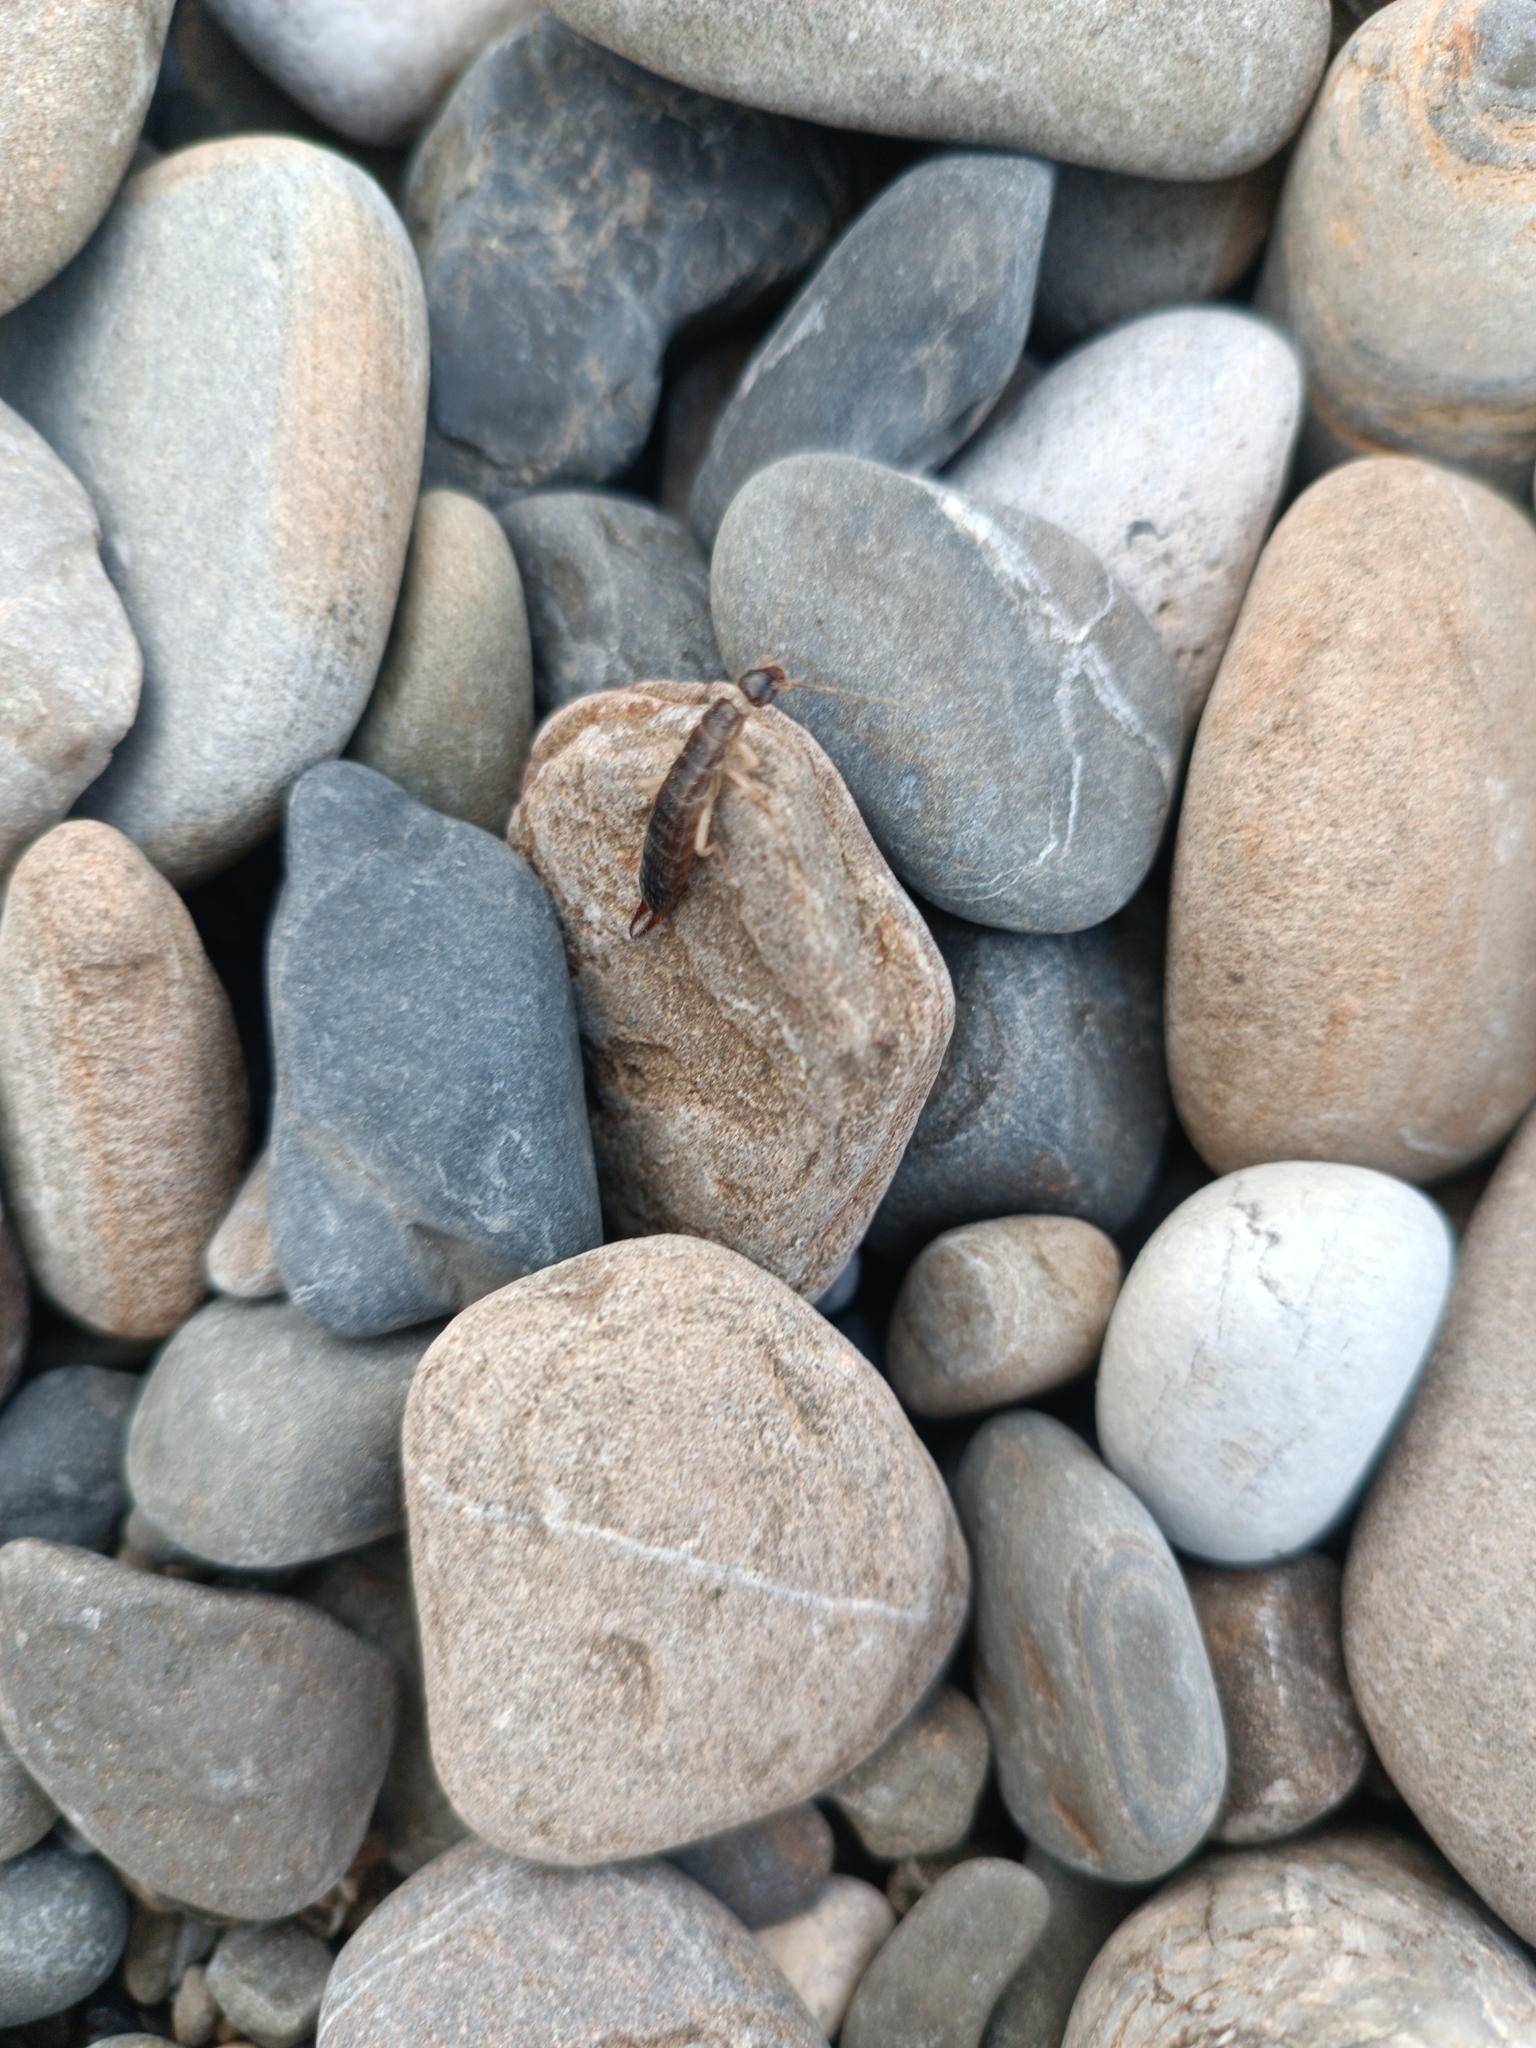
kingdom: Animalia
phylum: Arthropoda
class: Insecta
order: Dermaptera
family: Anisolabididae
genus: Anisolabis
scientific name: Anisolabis maritima
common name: Maritime earwig
